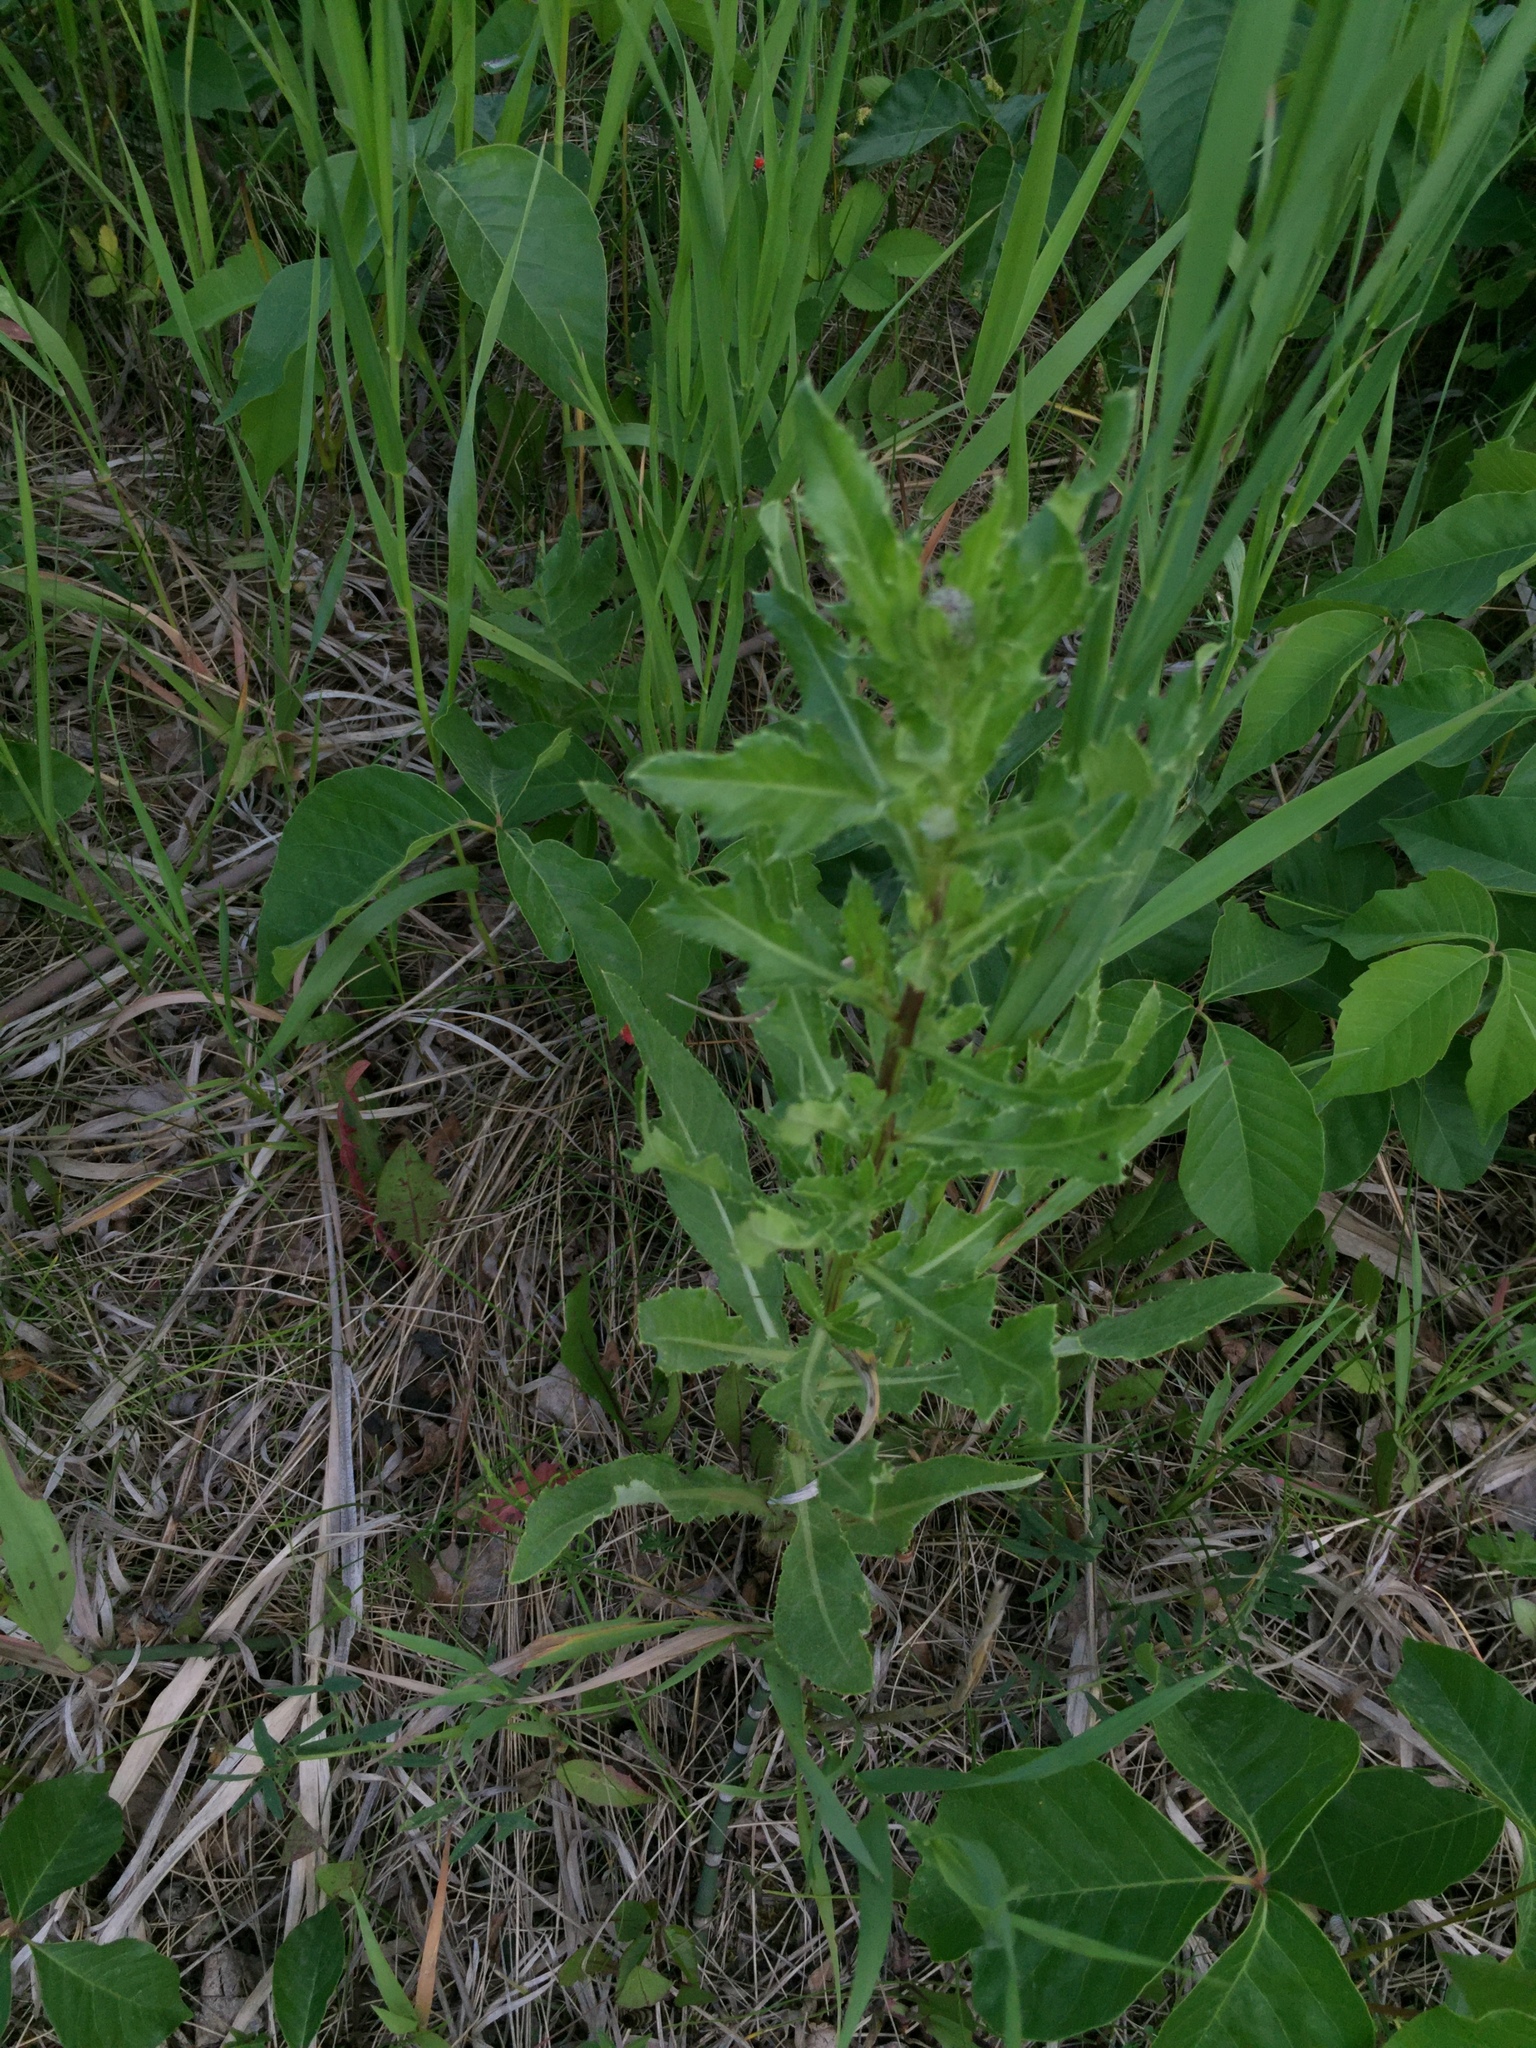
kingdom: Plantae
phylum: Tracheophyta
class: Magnoliopsida
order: Asterales
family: Asteraceae
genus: Cirsium
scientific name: Cirsium arvense
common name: Creeping thistle
